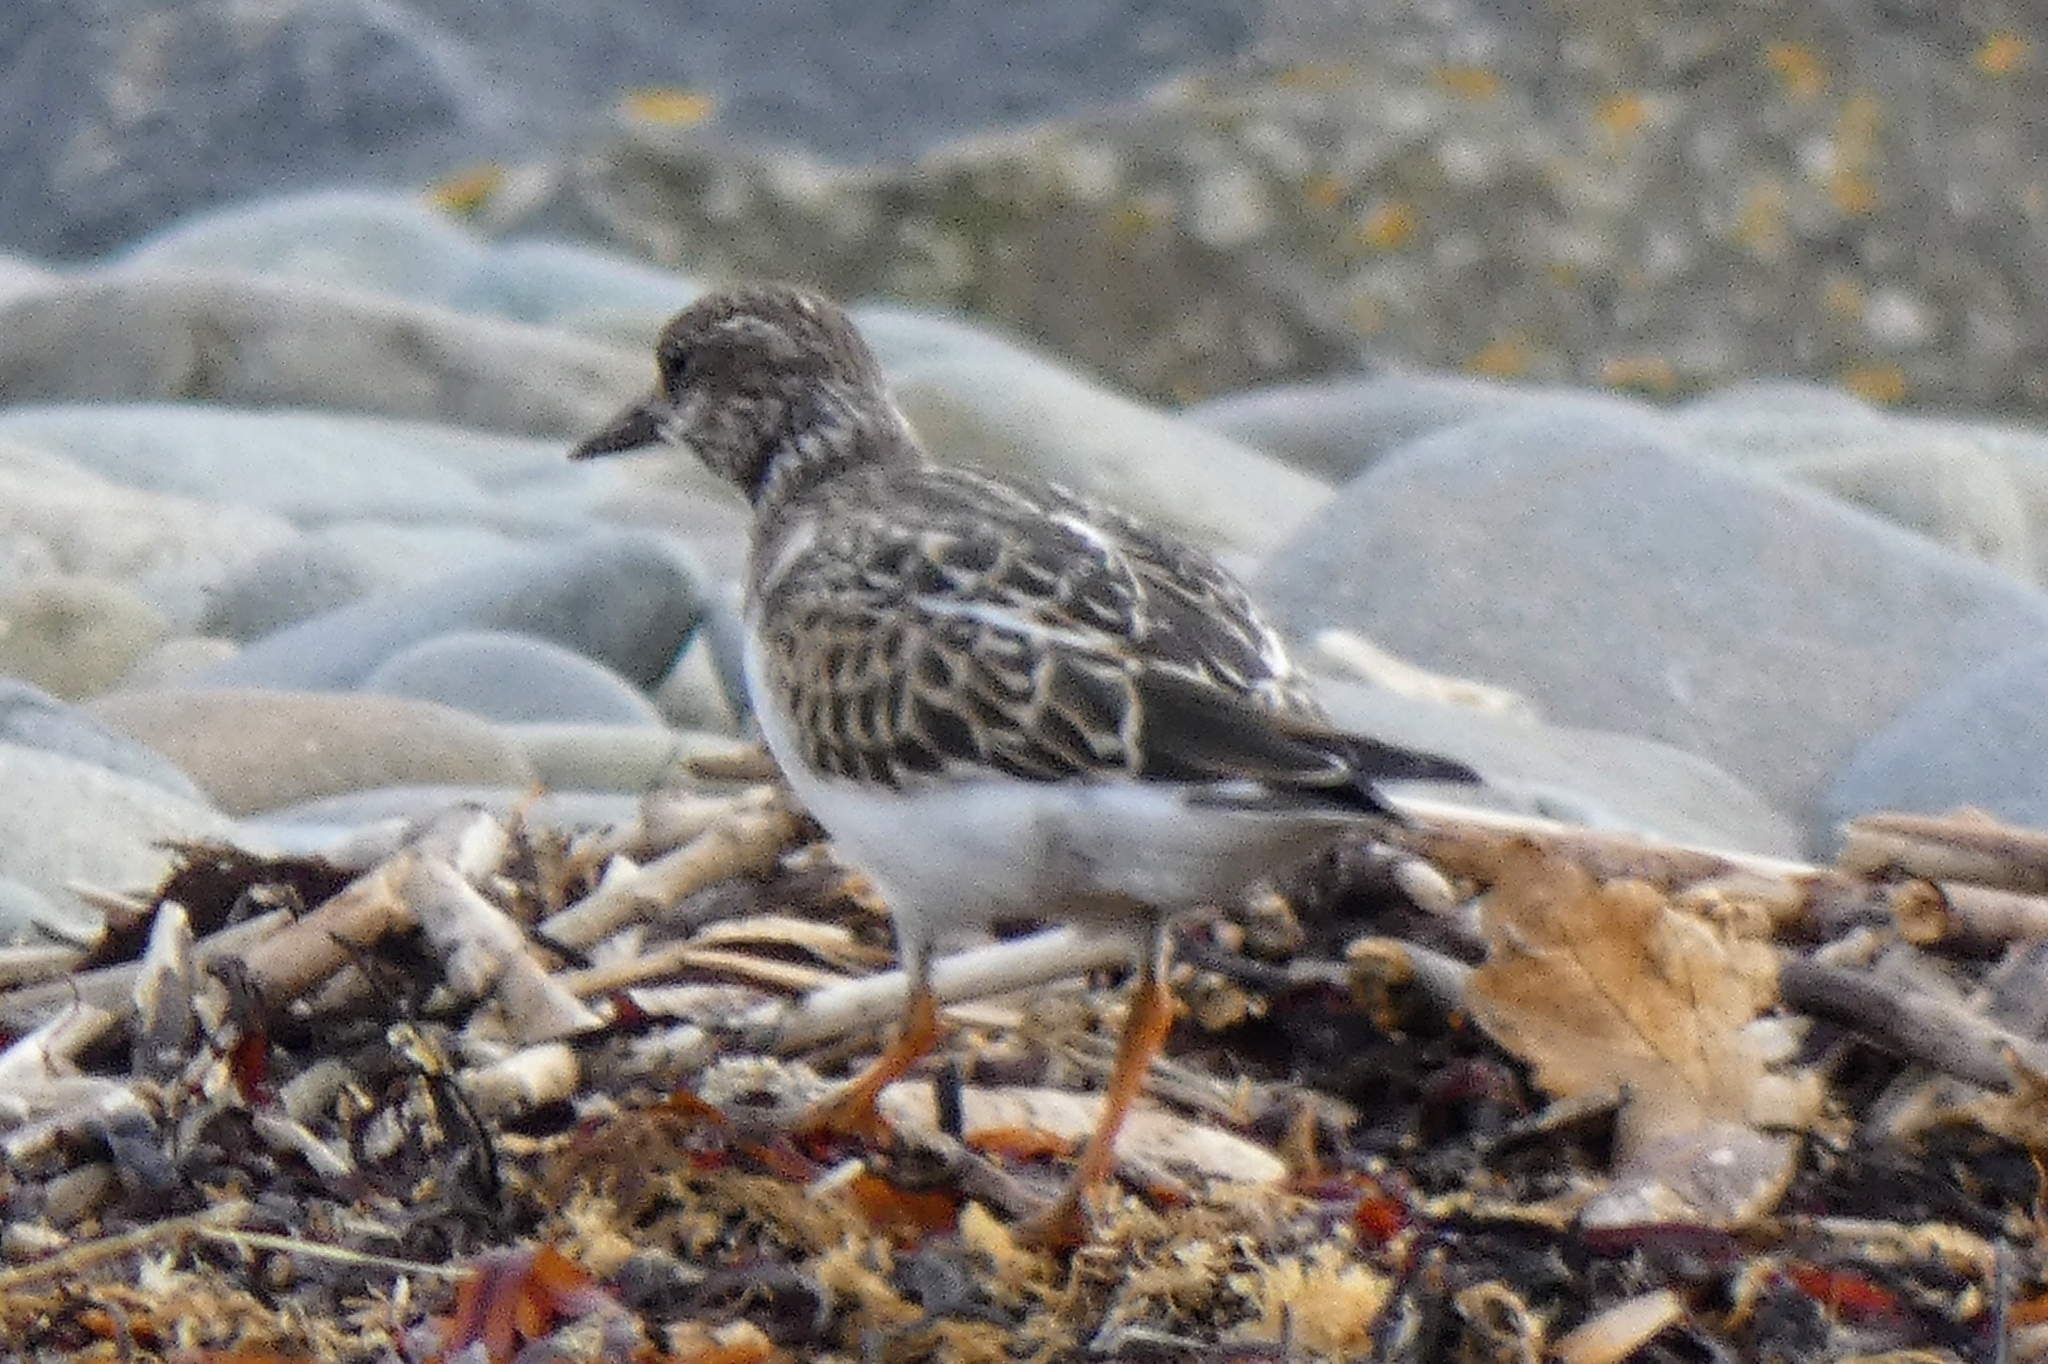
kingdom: Animalia
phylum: Chordata
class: Aves
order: Charadriiformes
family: Scolopacidae
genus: Arenaria
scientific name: Arenaria interpres
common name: Ruddy turnstone
